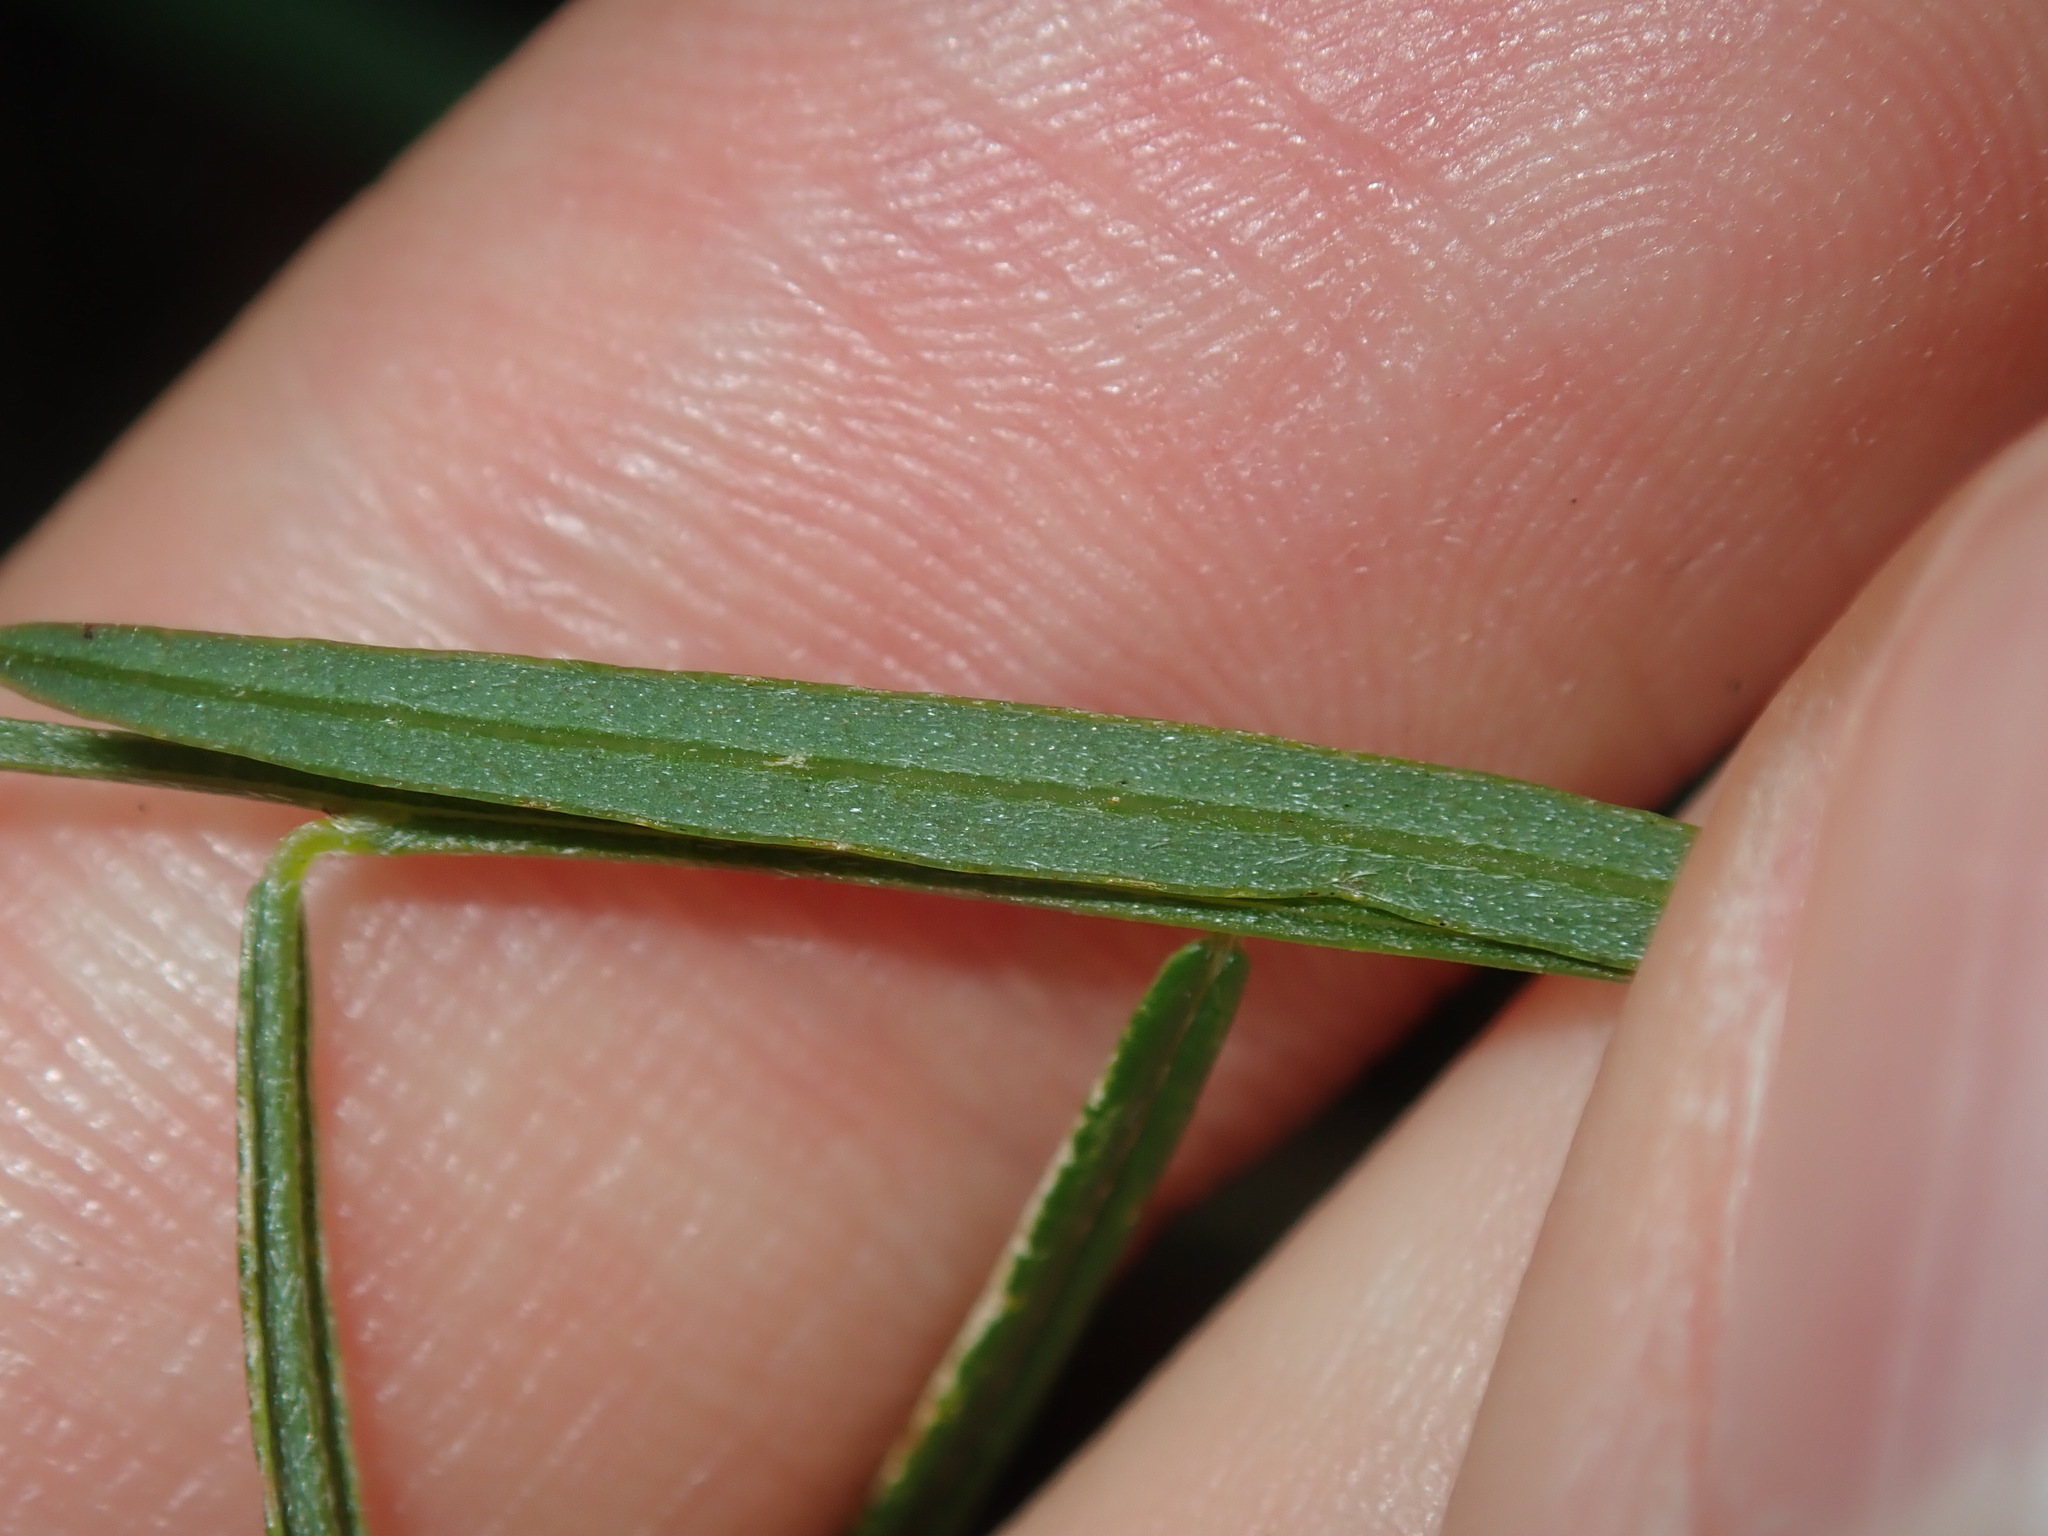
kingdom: Plantae
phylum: Tracheophyta
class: Magnoliopsida
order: Fabales
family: Fabaceae
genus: Chorizema
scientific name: Chorizema parviflorum
